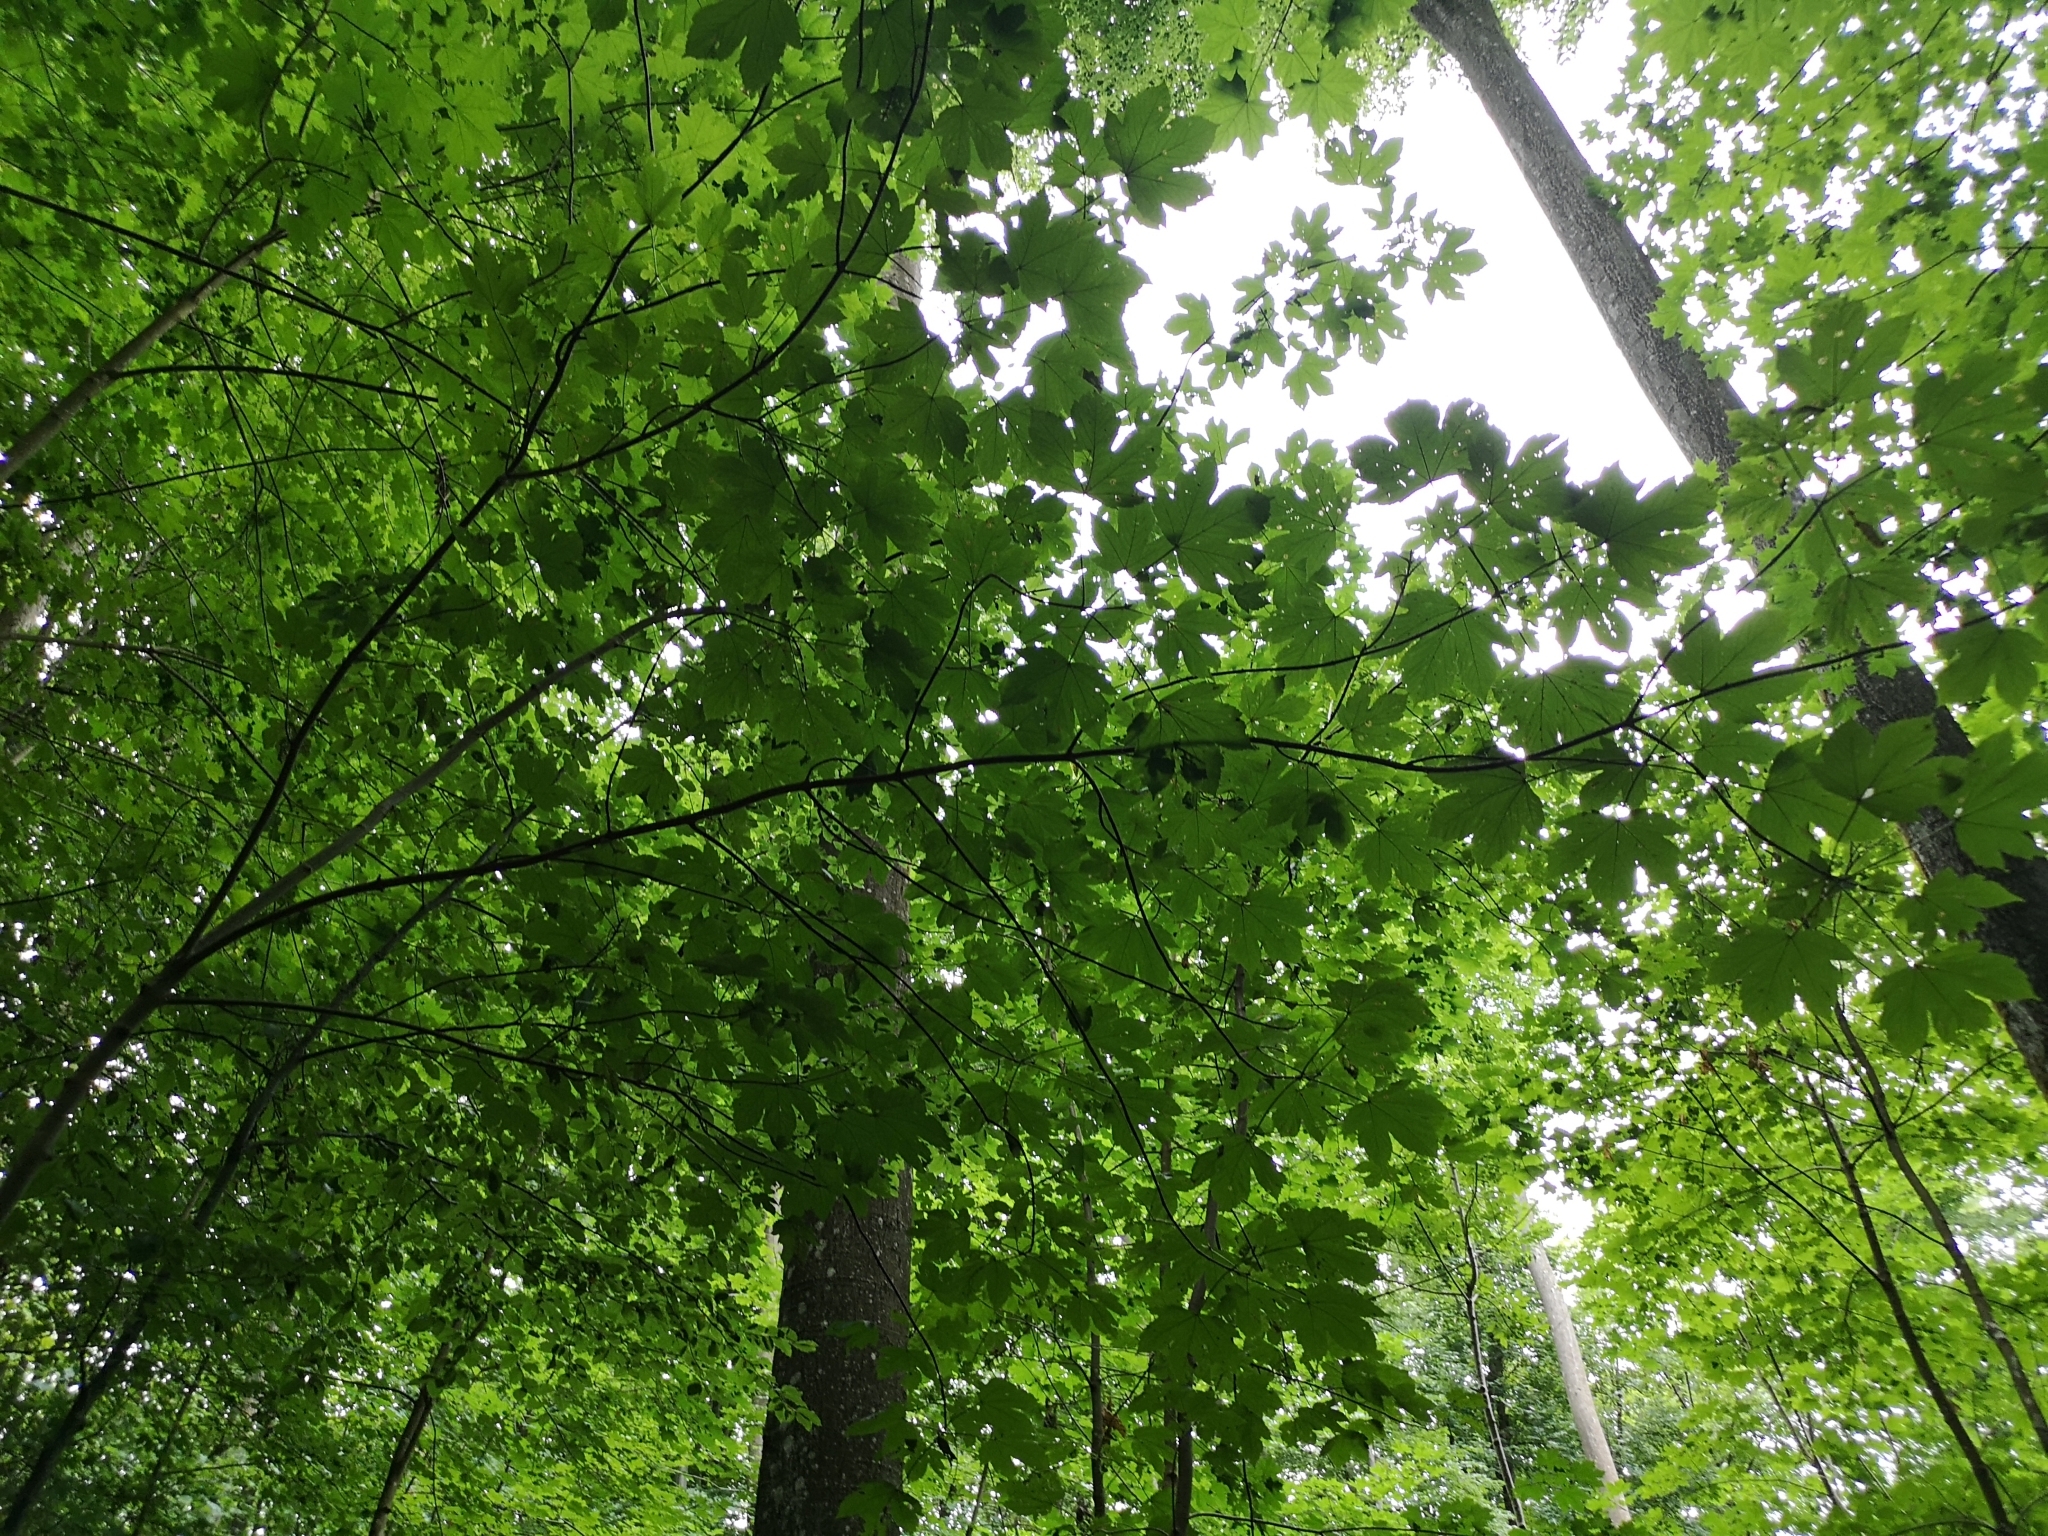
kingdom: Plantae
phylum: Tracheophyta
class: Magnoliopsida
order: Sapindales
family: Sapindaceae
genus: Acer
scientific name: Acer pseudoplatanus
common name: Sycamore
